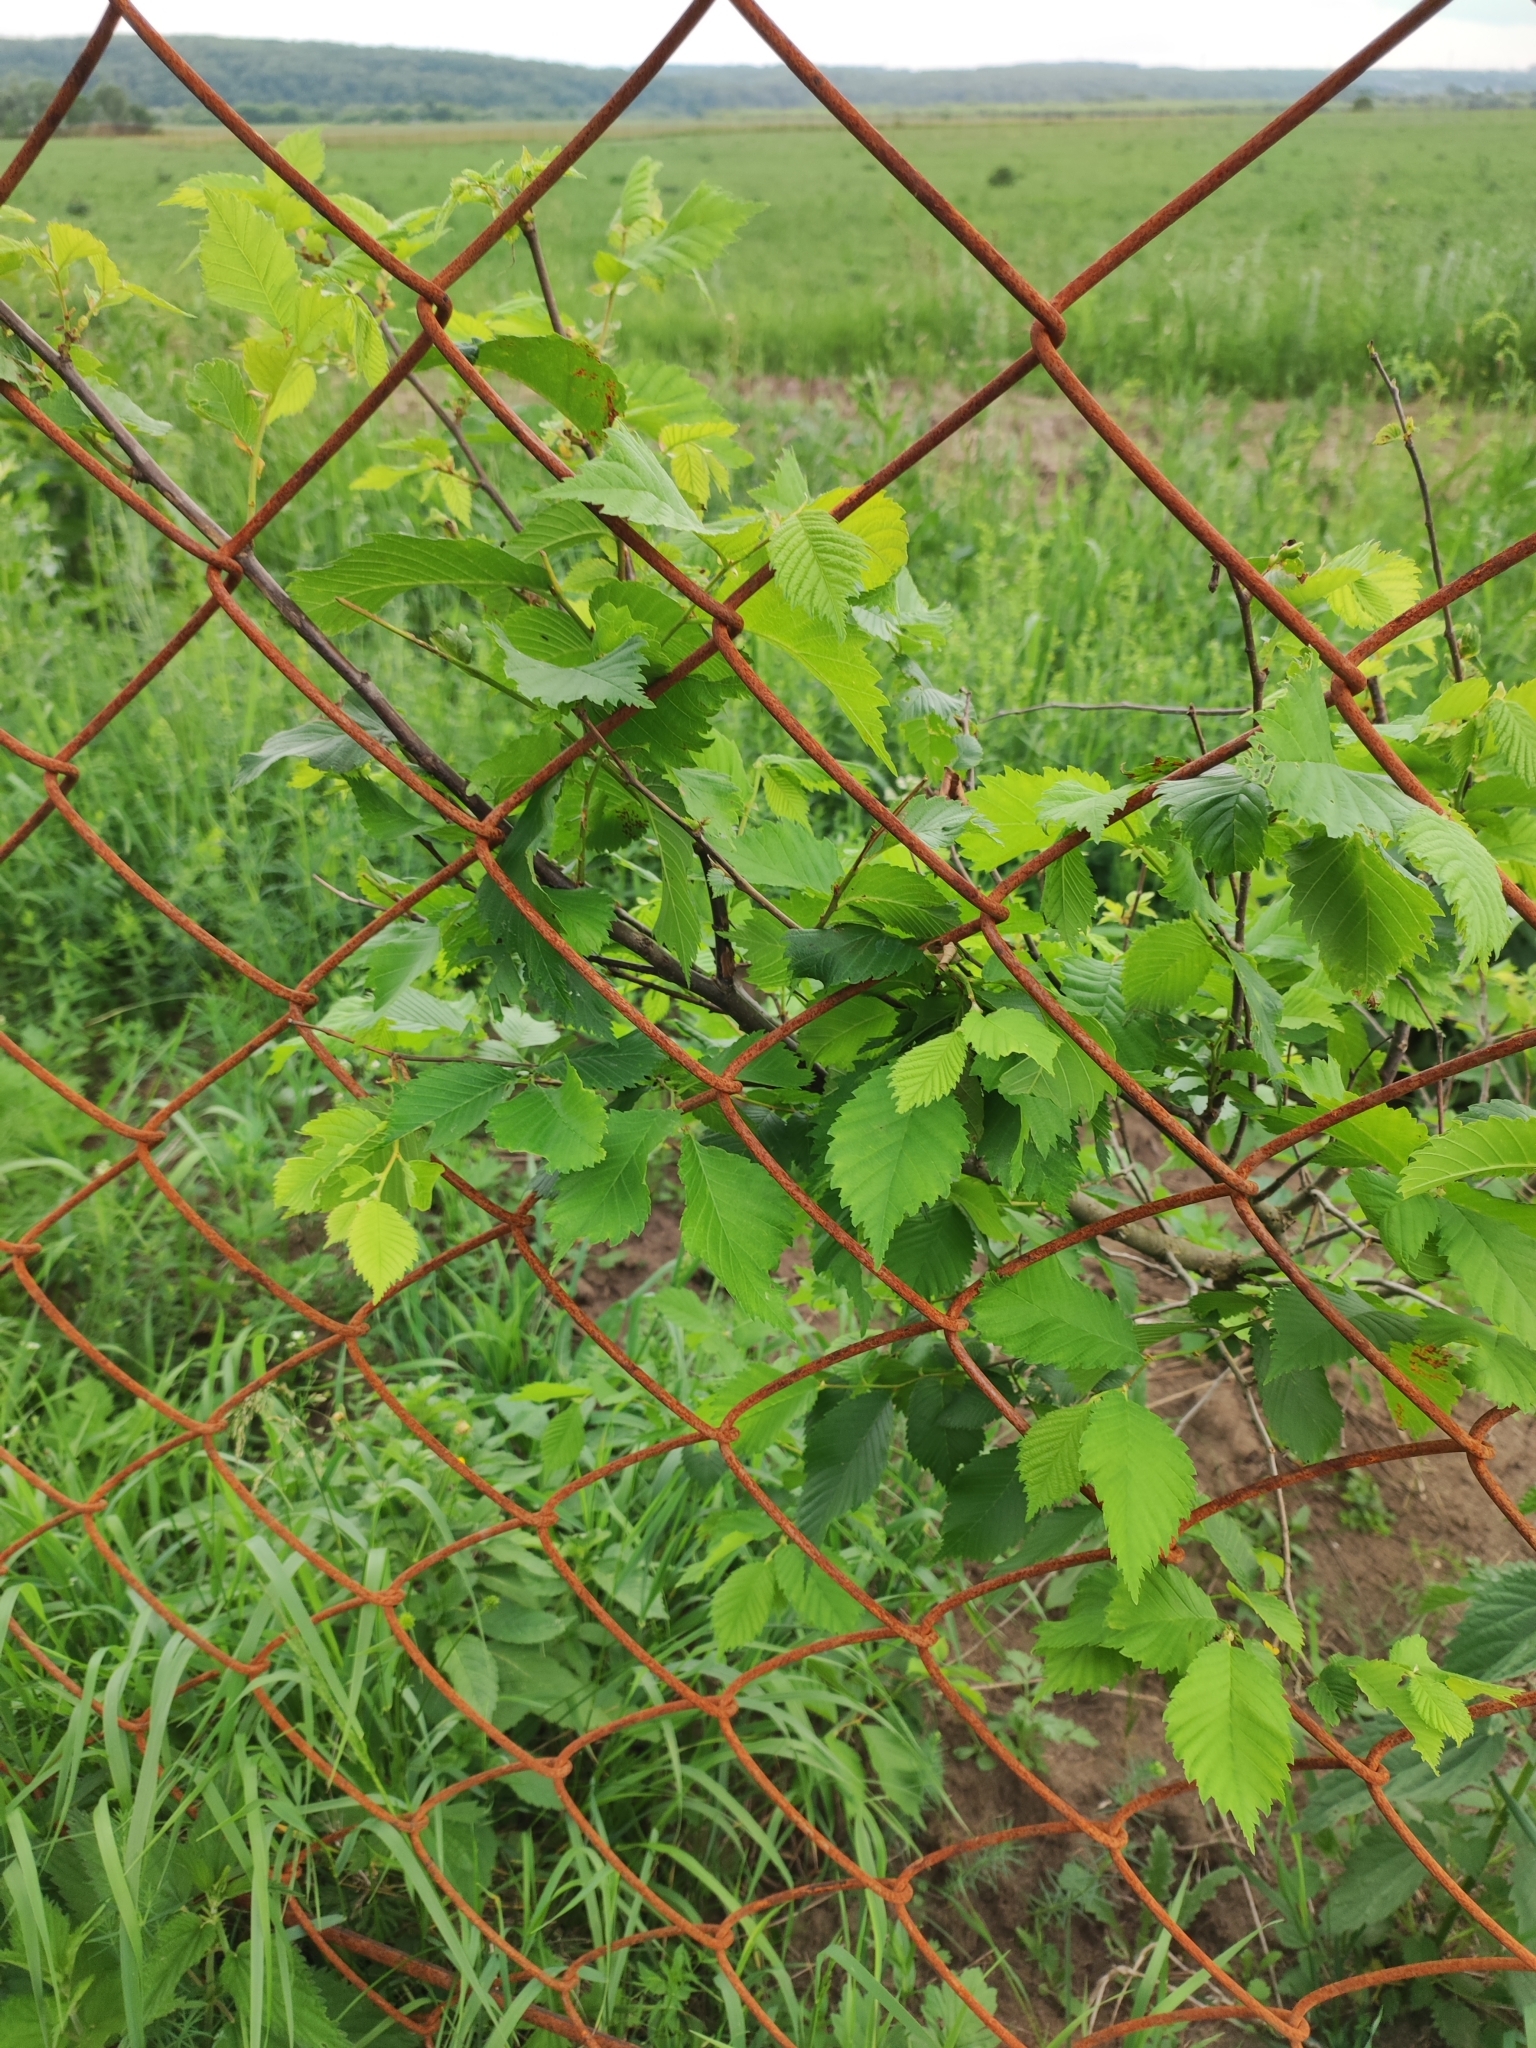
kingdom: Plantae
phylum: Tracheophyta
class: Magnoliopsida
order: Rosales
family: Ulmaceae
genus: Ulmus
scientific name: Ulmus laevis
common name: European white-elm
